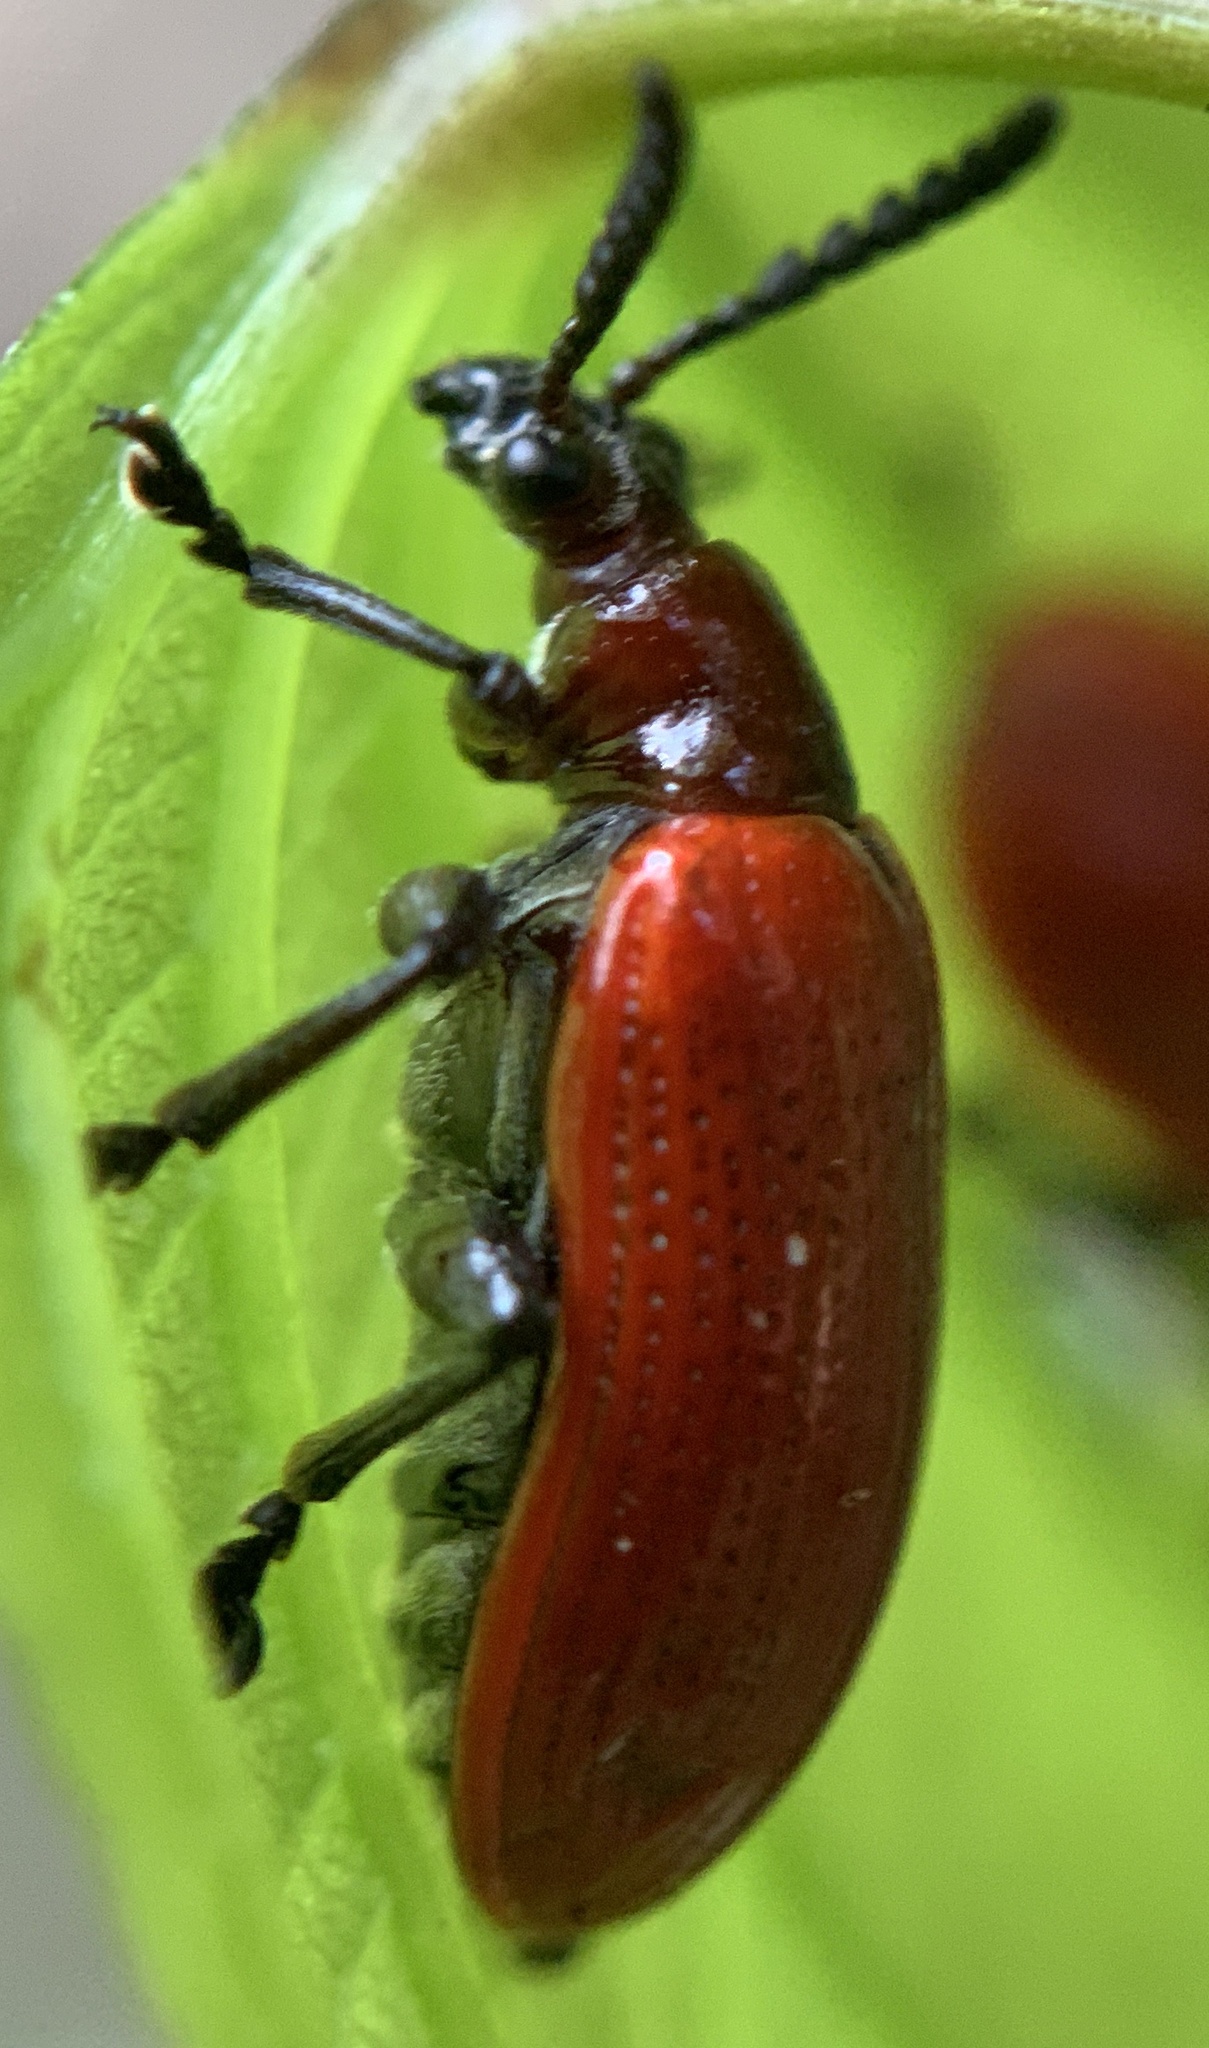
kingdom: Animalia
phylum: Arthropoda
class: Insecta
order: Coleoptera
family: Chrysomelidae
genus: Lilioceris
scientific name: Lilioceris cheni
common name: Leaf beetle
